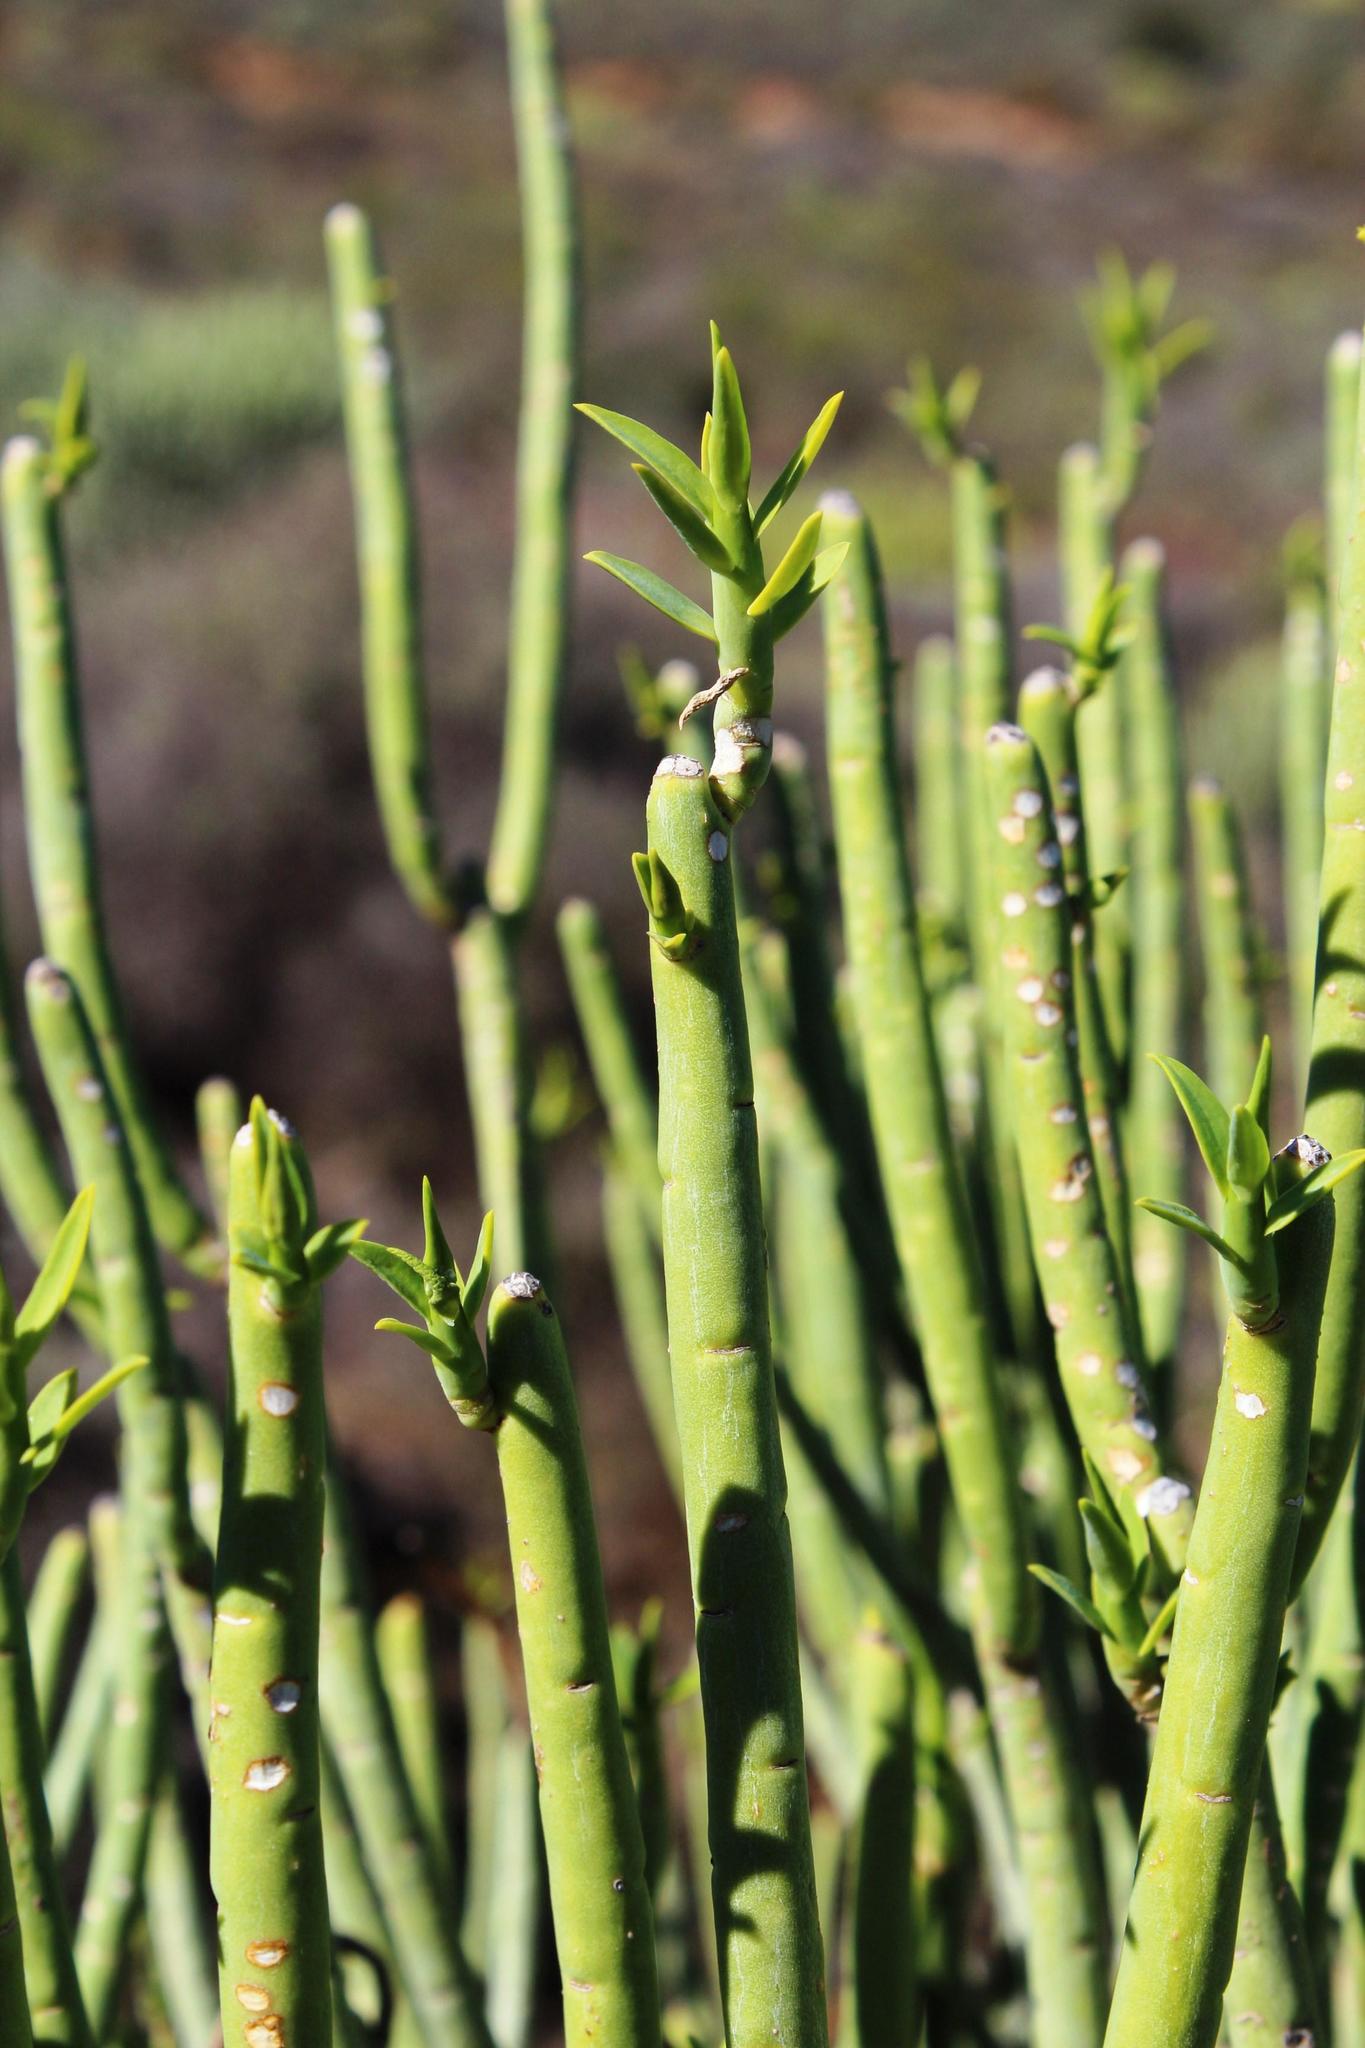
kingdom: Plantae
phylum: Tracheophyta
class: Magnoliopsida
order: Malpighiales
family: Euphorbiaceae
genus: Euphorbia
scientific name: Euphorbia mauritanica
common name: Jackal's-food
